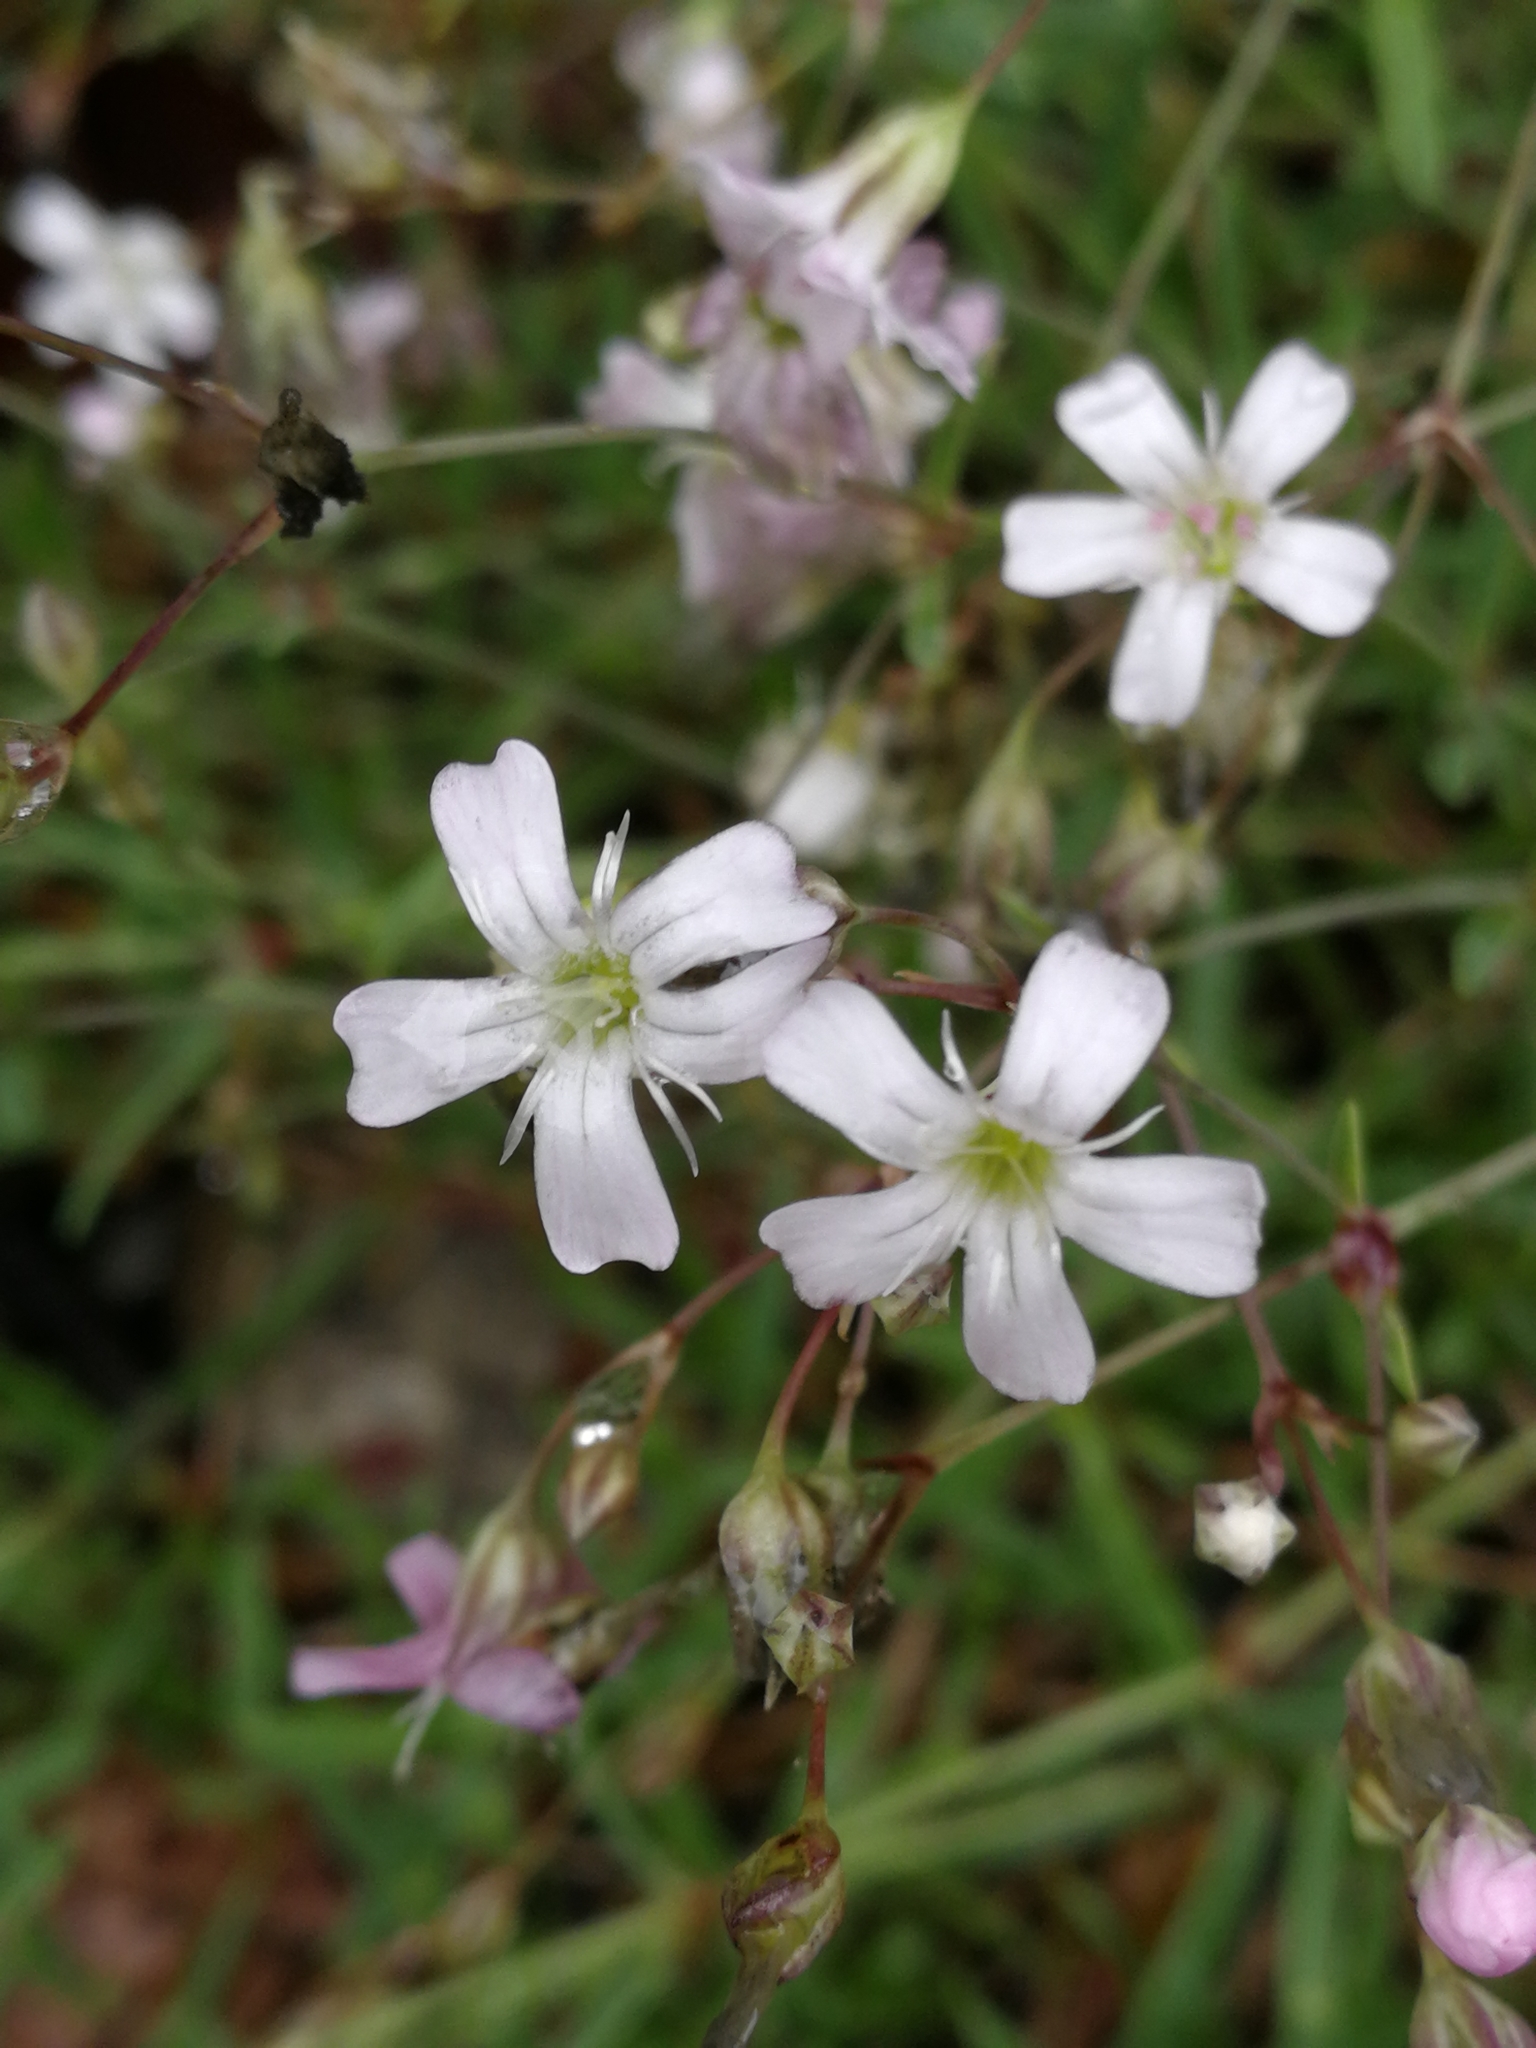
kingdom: Plantae
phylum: Tracheophyta
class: Magnoliopsida
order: Caryophyllales
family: Caryophyllaceae
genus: Gypsophila
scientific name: Gypsophila repens
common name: Creeping baby's-breath
